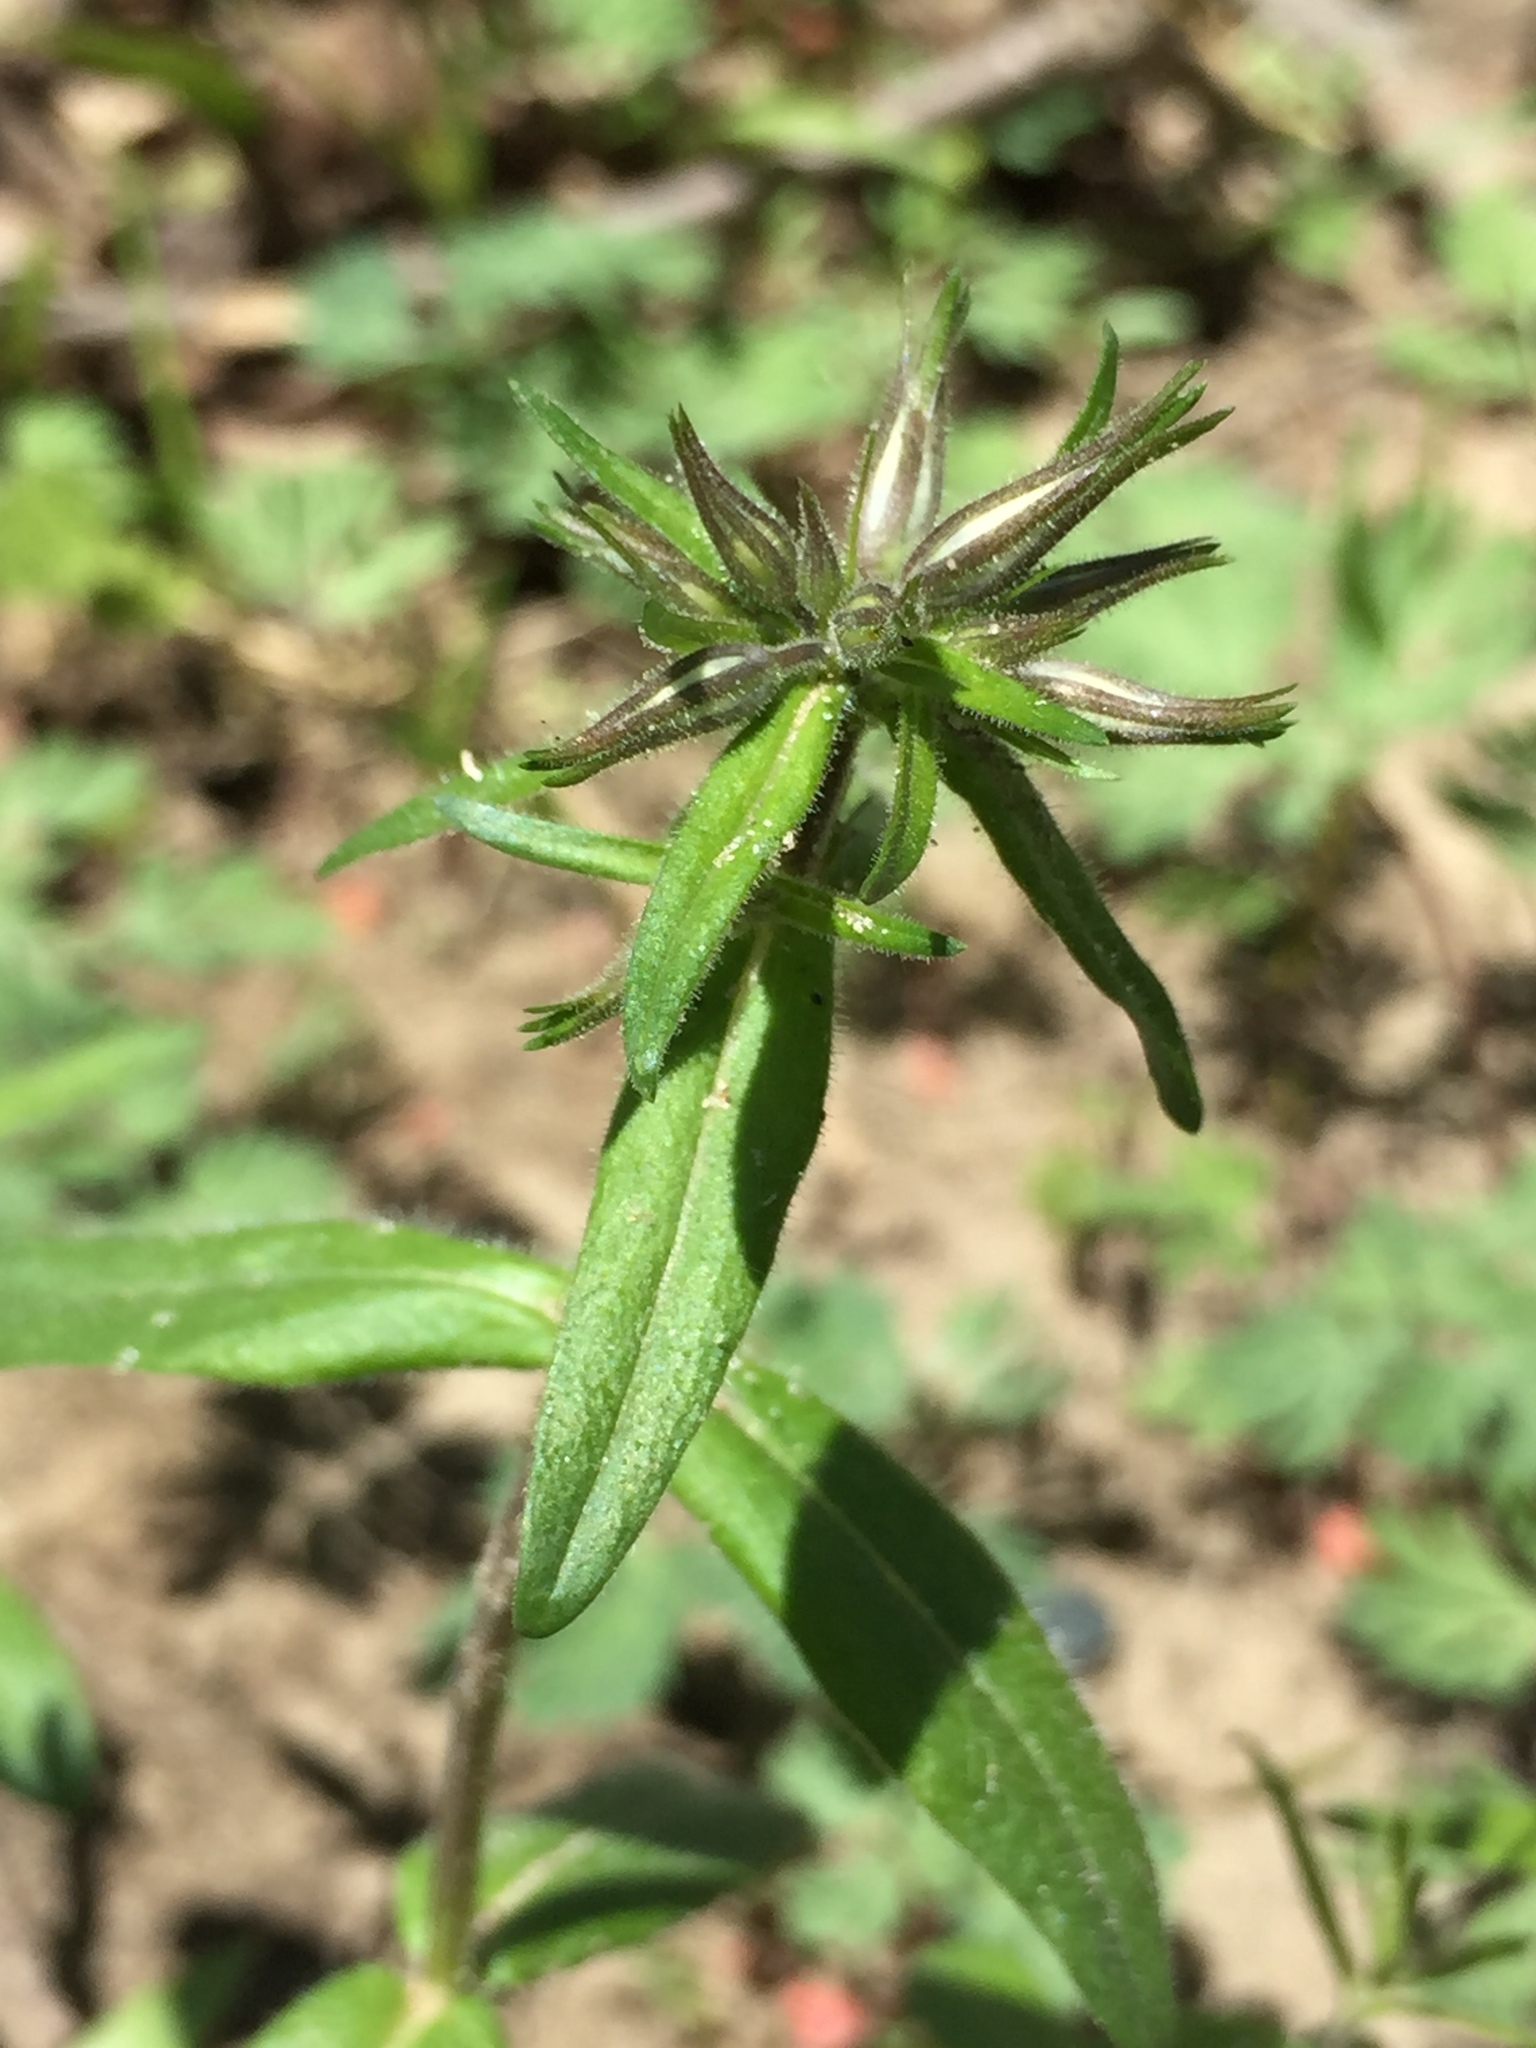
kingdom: Plantae
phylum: Tracheophyta
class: Magnoliopsida
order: Ericales
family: Polemoniaceae
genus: Phlox
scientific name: Phlox divaricata
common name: Blue phlox
